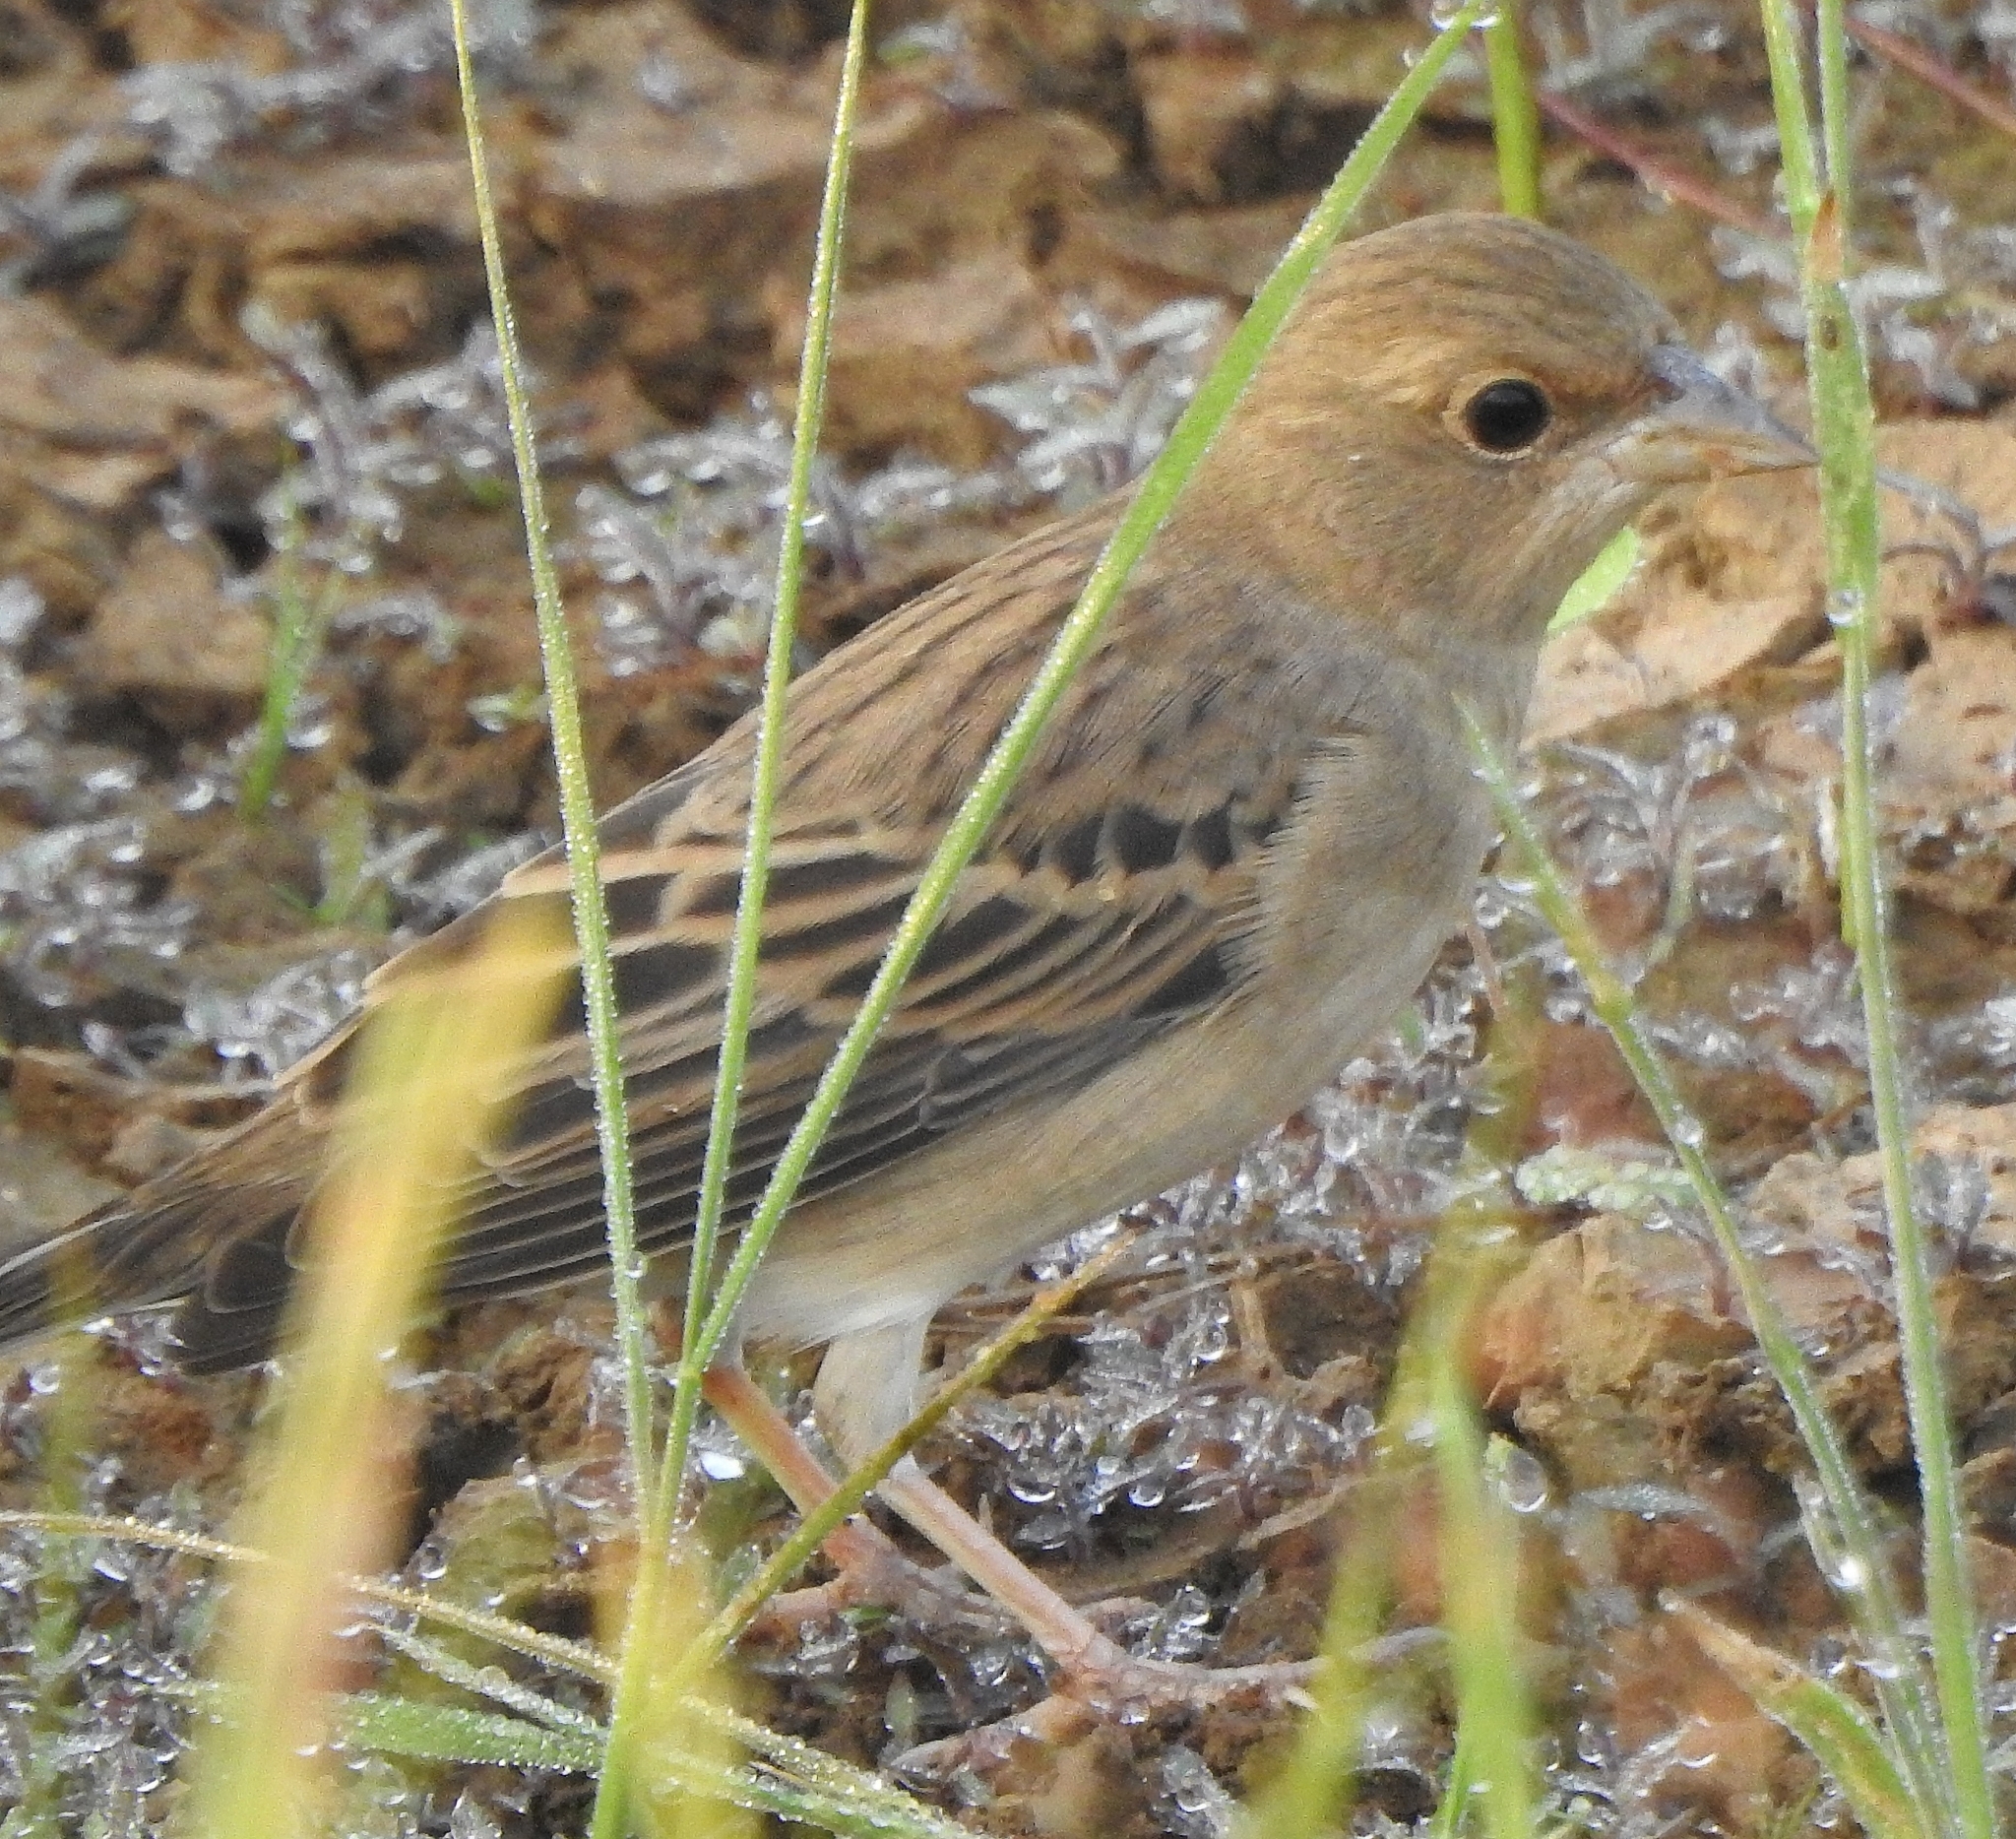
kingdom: Animalia
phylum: Chordata
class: Aves
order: Passeriformes
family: Emberizidae
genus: Emberiza
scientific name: Emberiza bruniceps
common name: Red-headed bunting
